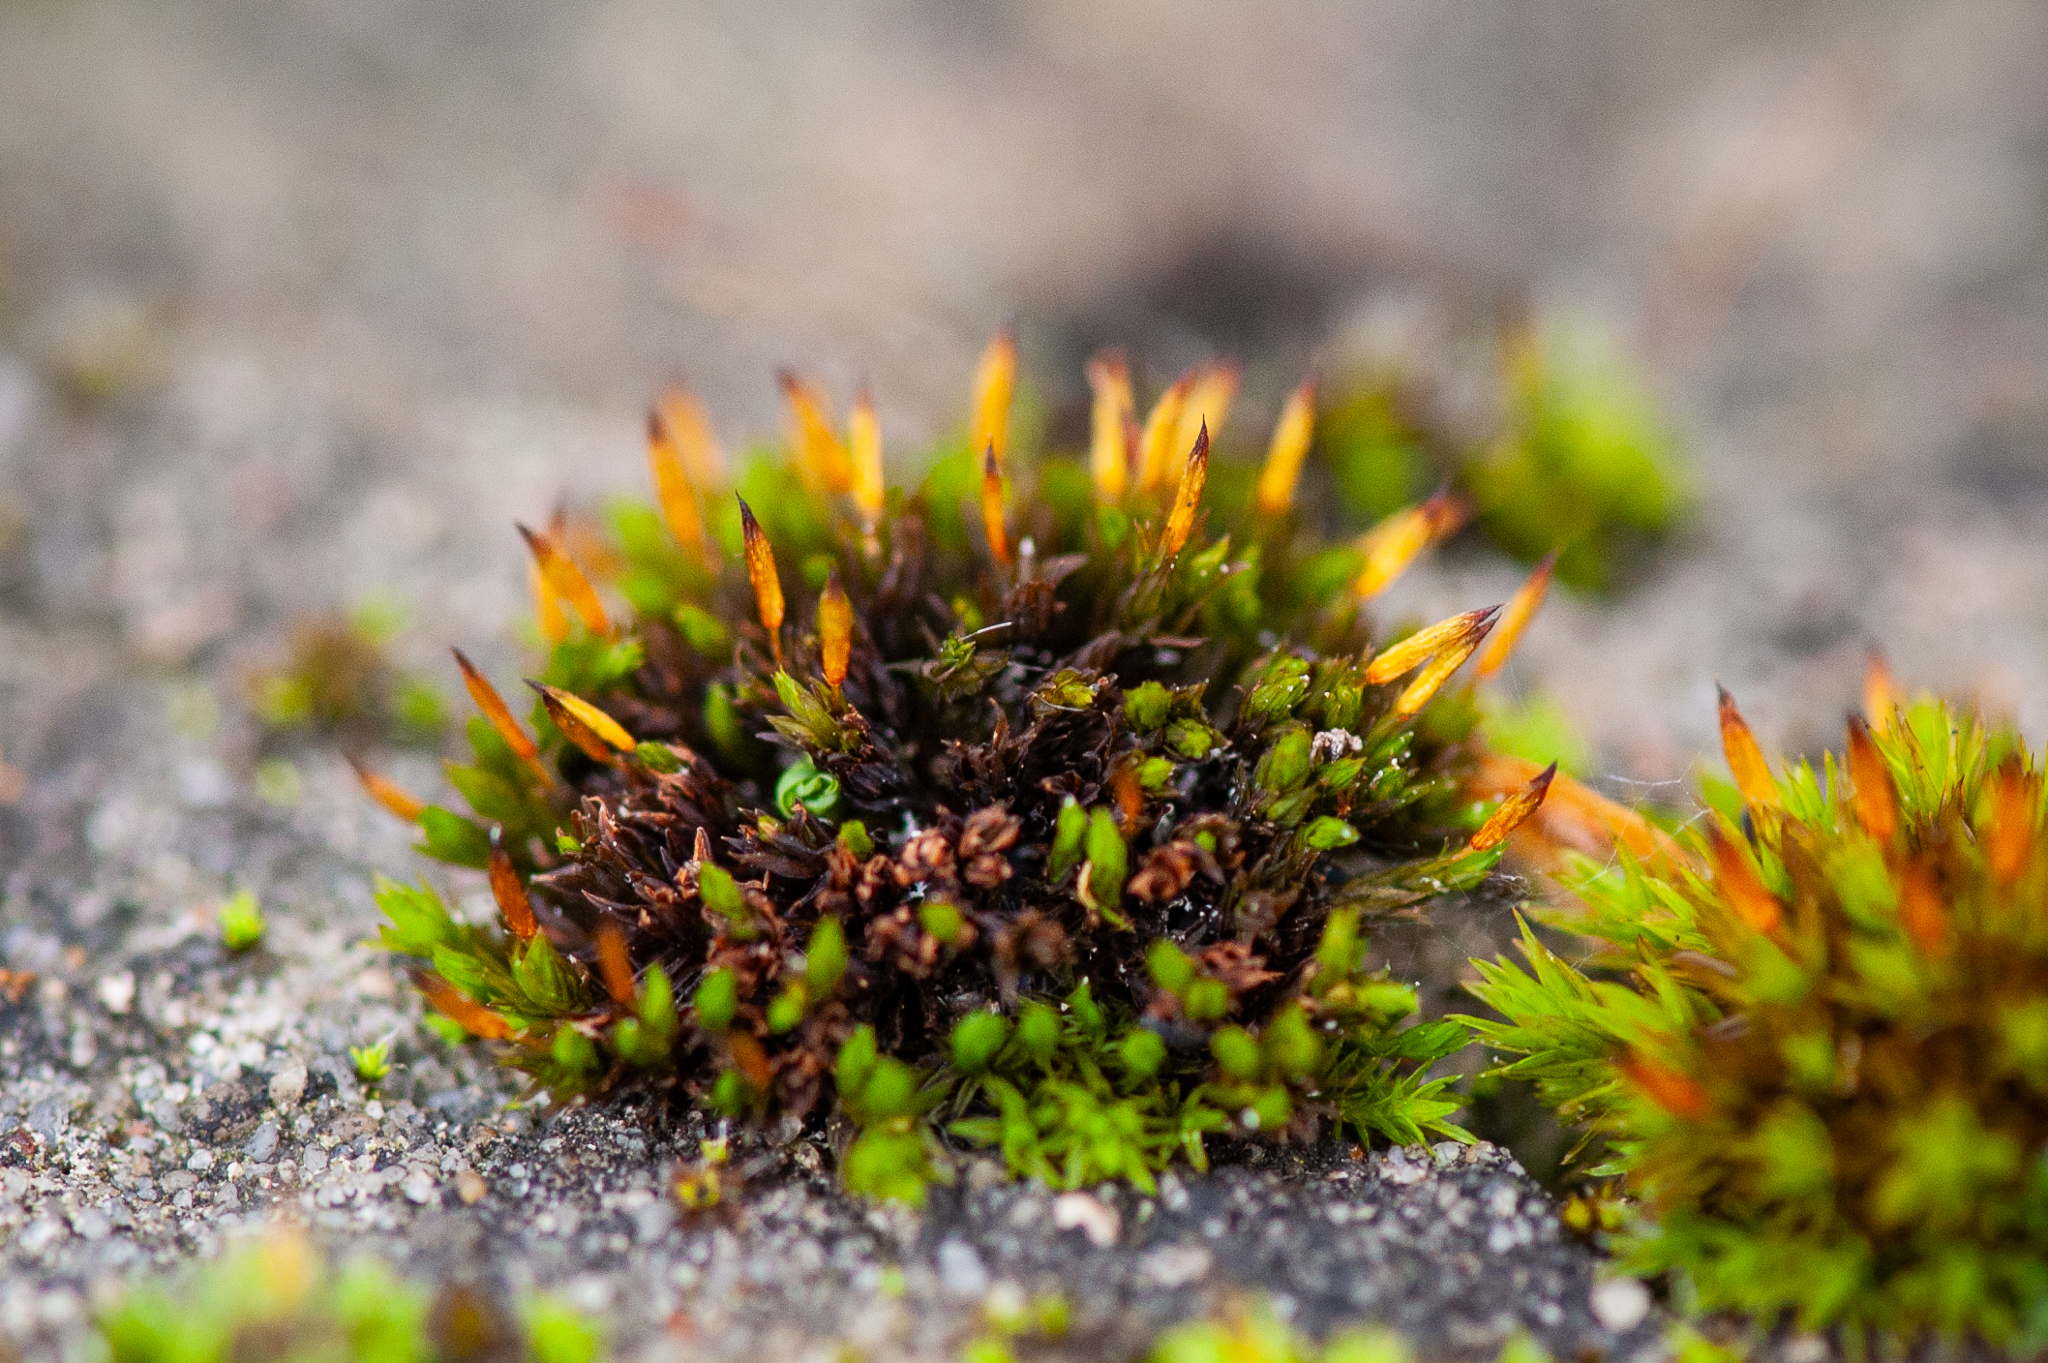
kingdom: Plantae
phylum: Bryophyta
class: Bryopsida
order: Orthotrichales
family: Orthotrichaceae
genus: Orthotrichum
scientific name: Orthotrichum anomalum
